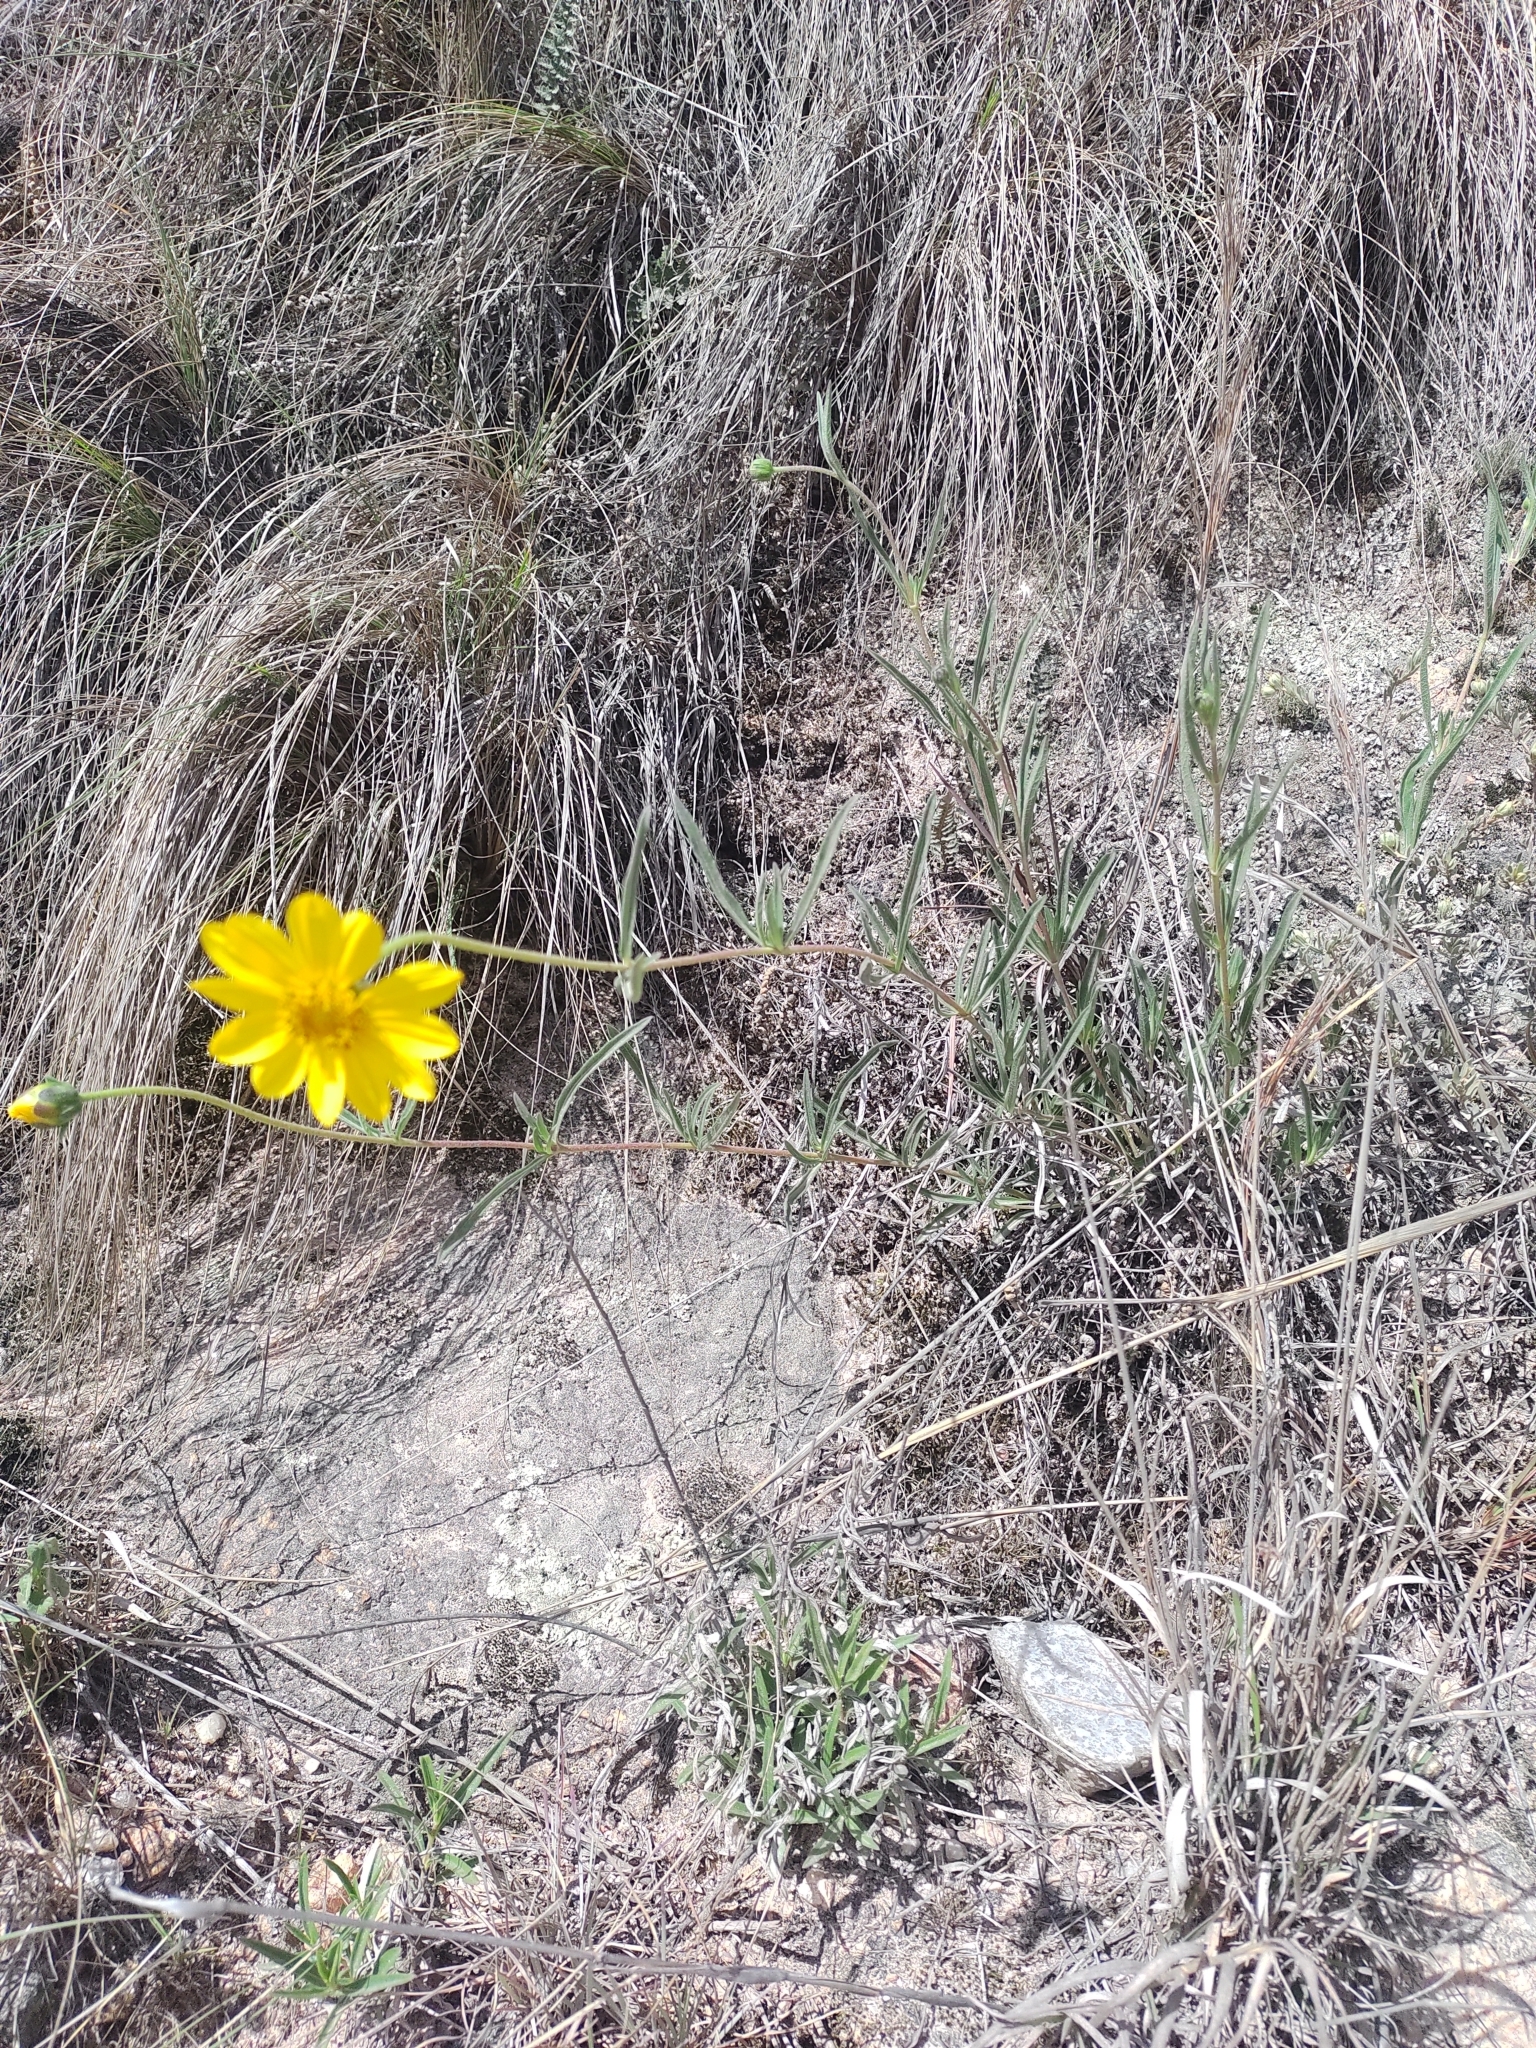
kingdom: Plantae
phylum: Tracheophyta
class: Magnoliopsida
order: Asterales
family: Asteraceae
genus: Zexmenia
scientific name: Zexmenia buphtalmiflora
